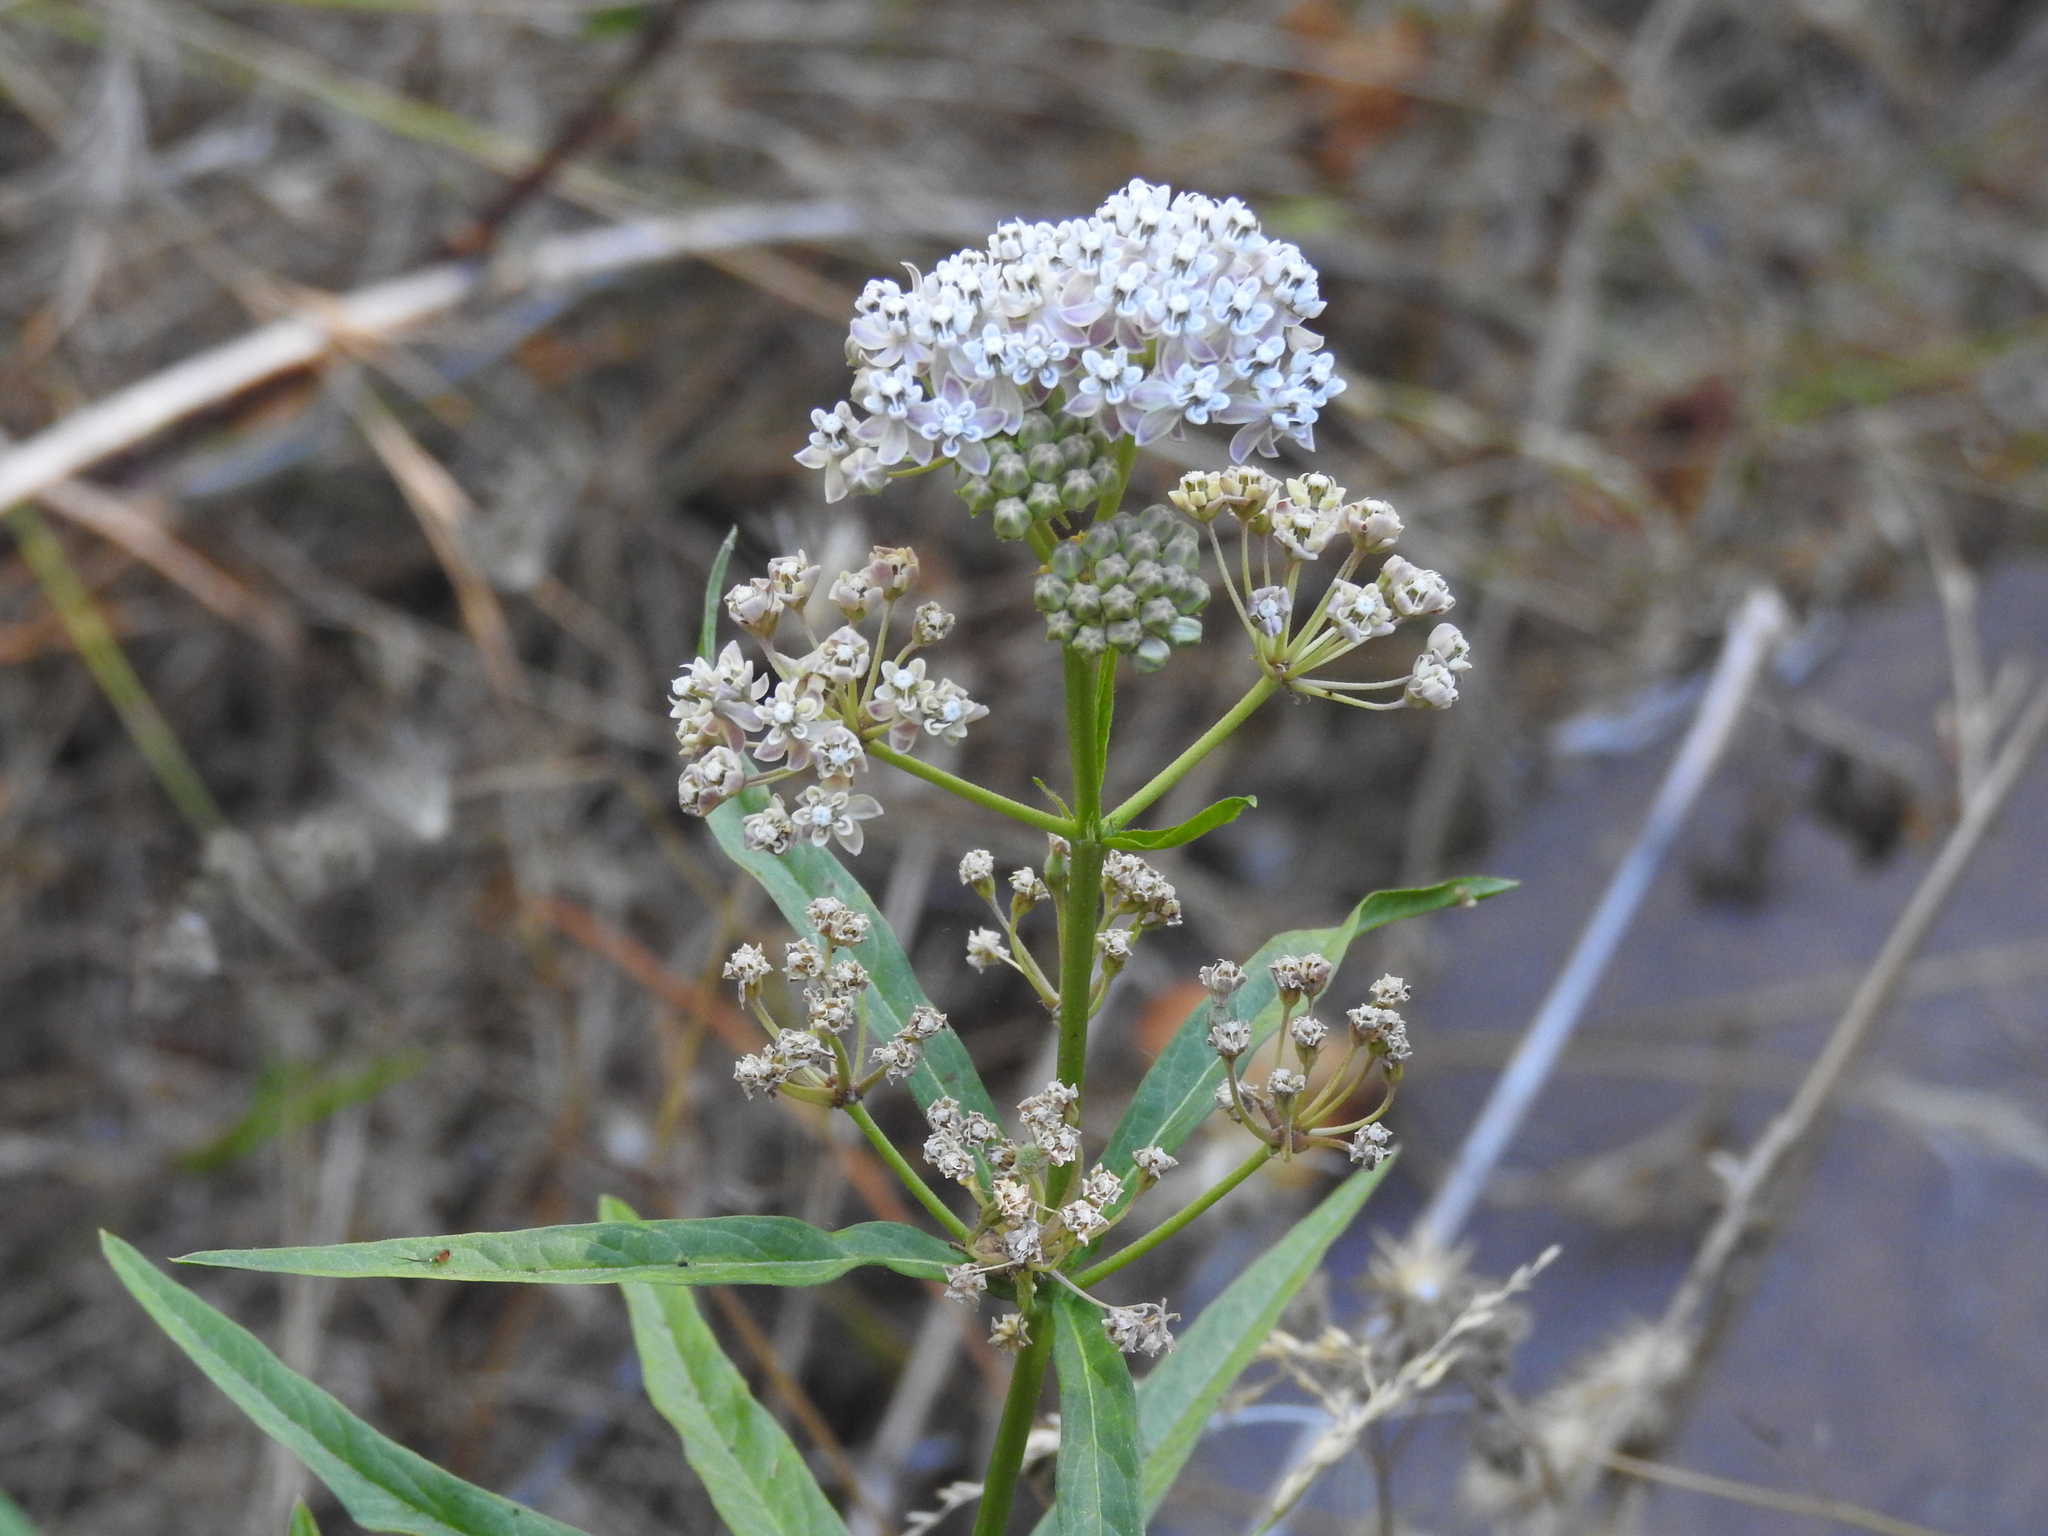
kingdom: Plantae
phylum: Tracheophyta
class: Magnoliopsida
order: Gentianales
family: Apocynaceae
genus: Asclepias
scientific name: Asclepias fascicularis
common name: Mexican milkweed
